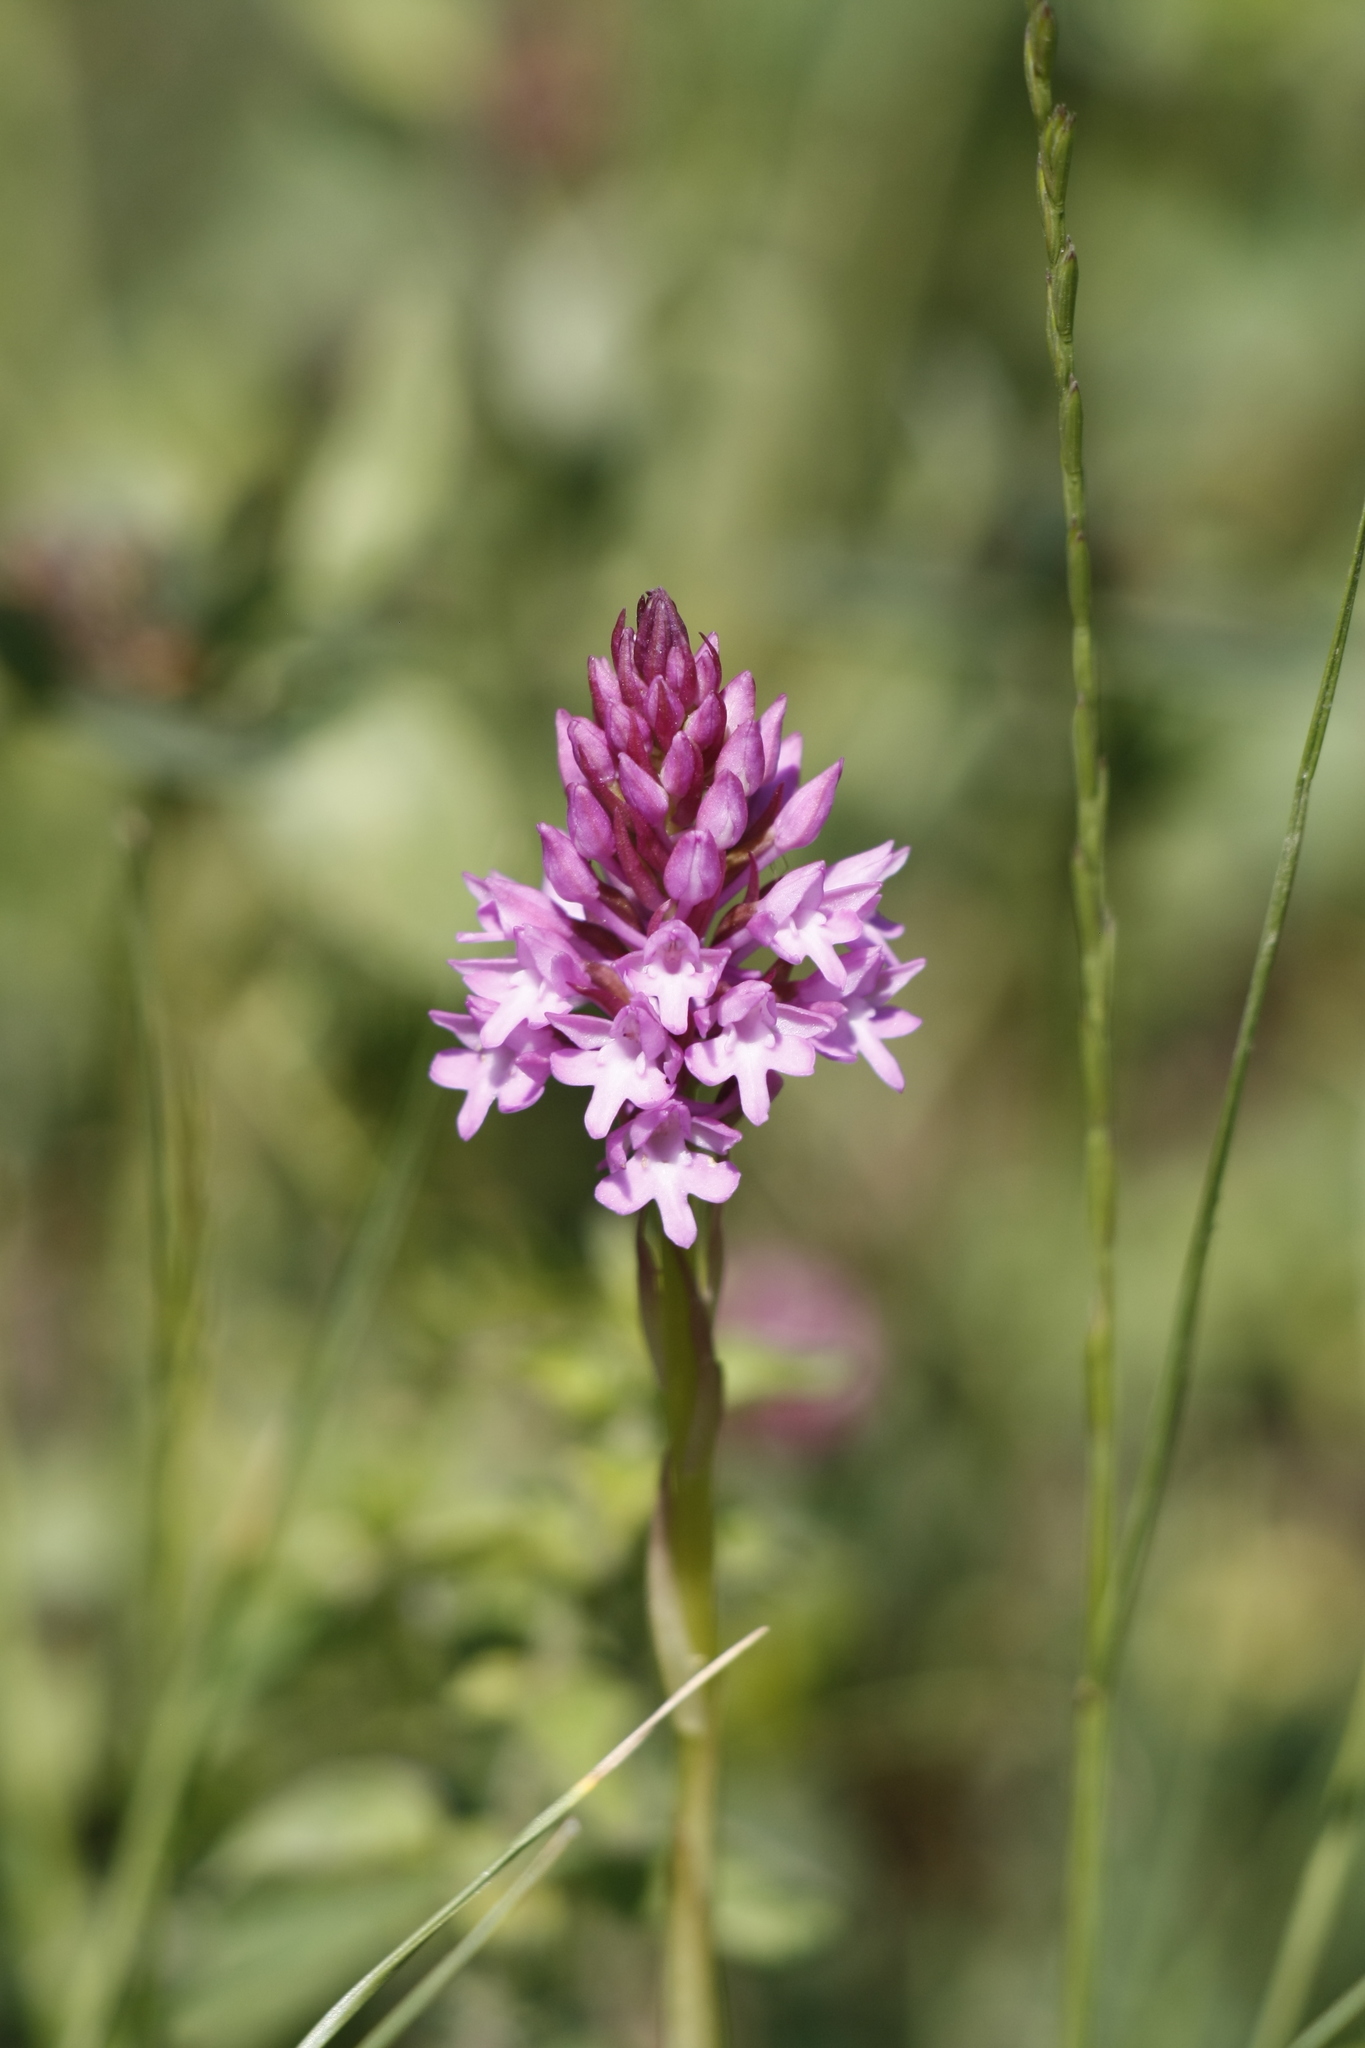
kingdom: Plantae
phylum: Tracheophyta
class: Liliopsida
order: Asparagales
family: Orchidaceae
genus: Anacamptis
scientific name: Anacamptis pyramidalis
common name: Pyramidal orchid
